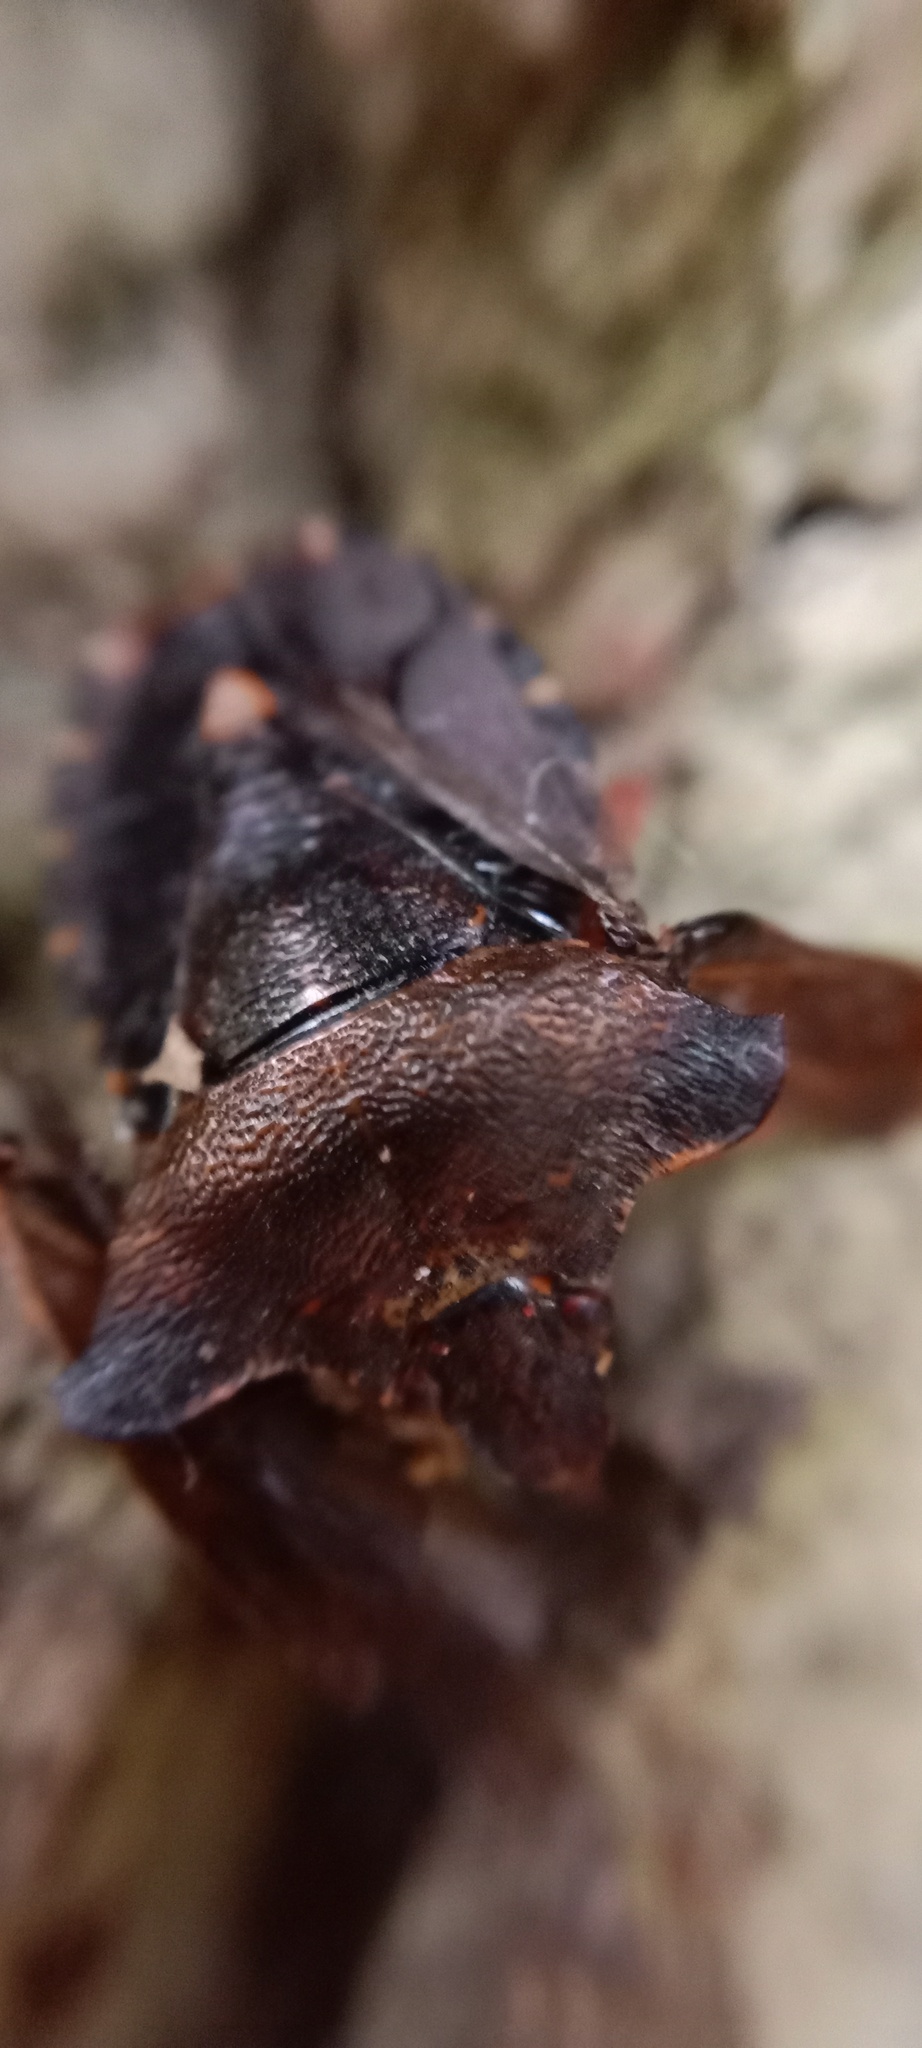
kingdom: Animalia
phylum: Arthropoda
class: Insecta
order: Hemiptera
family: Pentatomidae
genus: Pentatoma
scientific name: Pentatoma rufipes
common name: Forest bug
